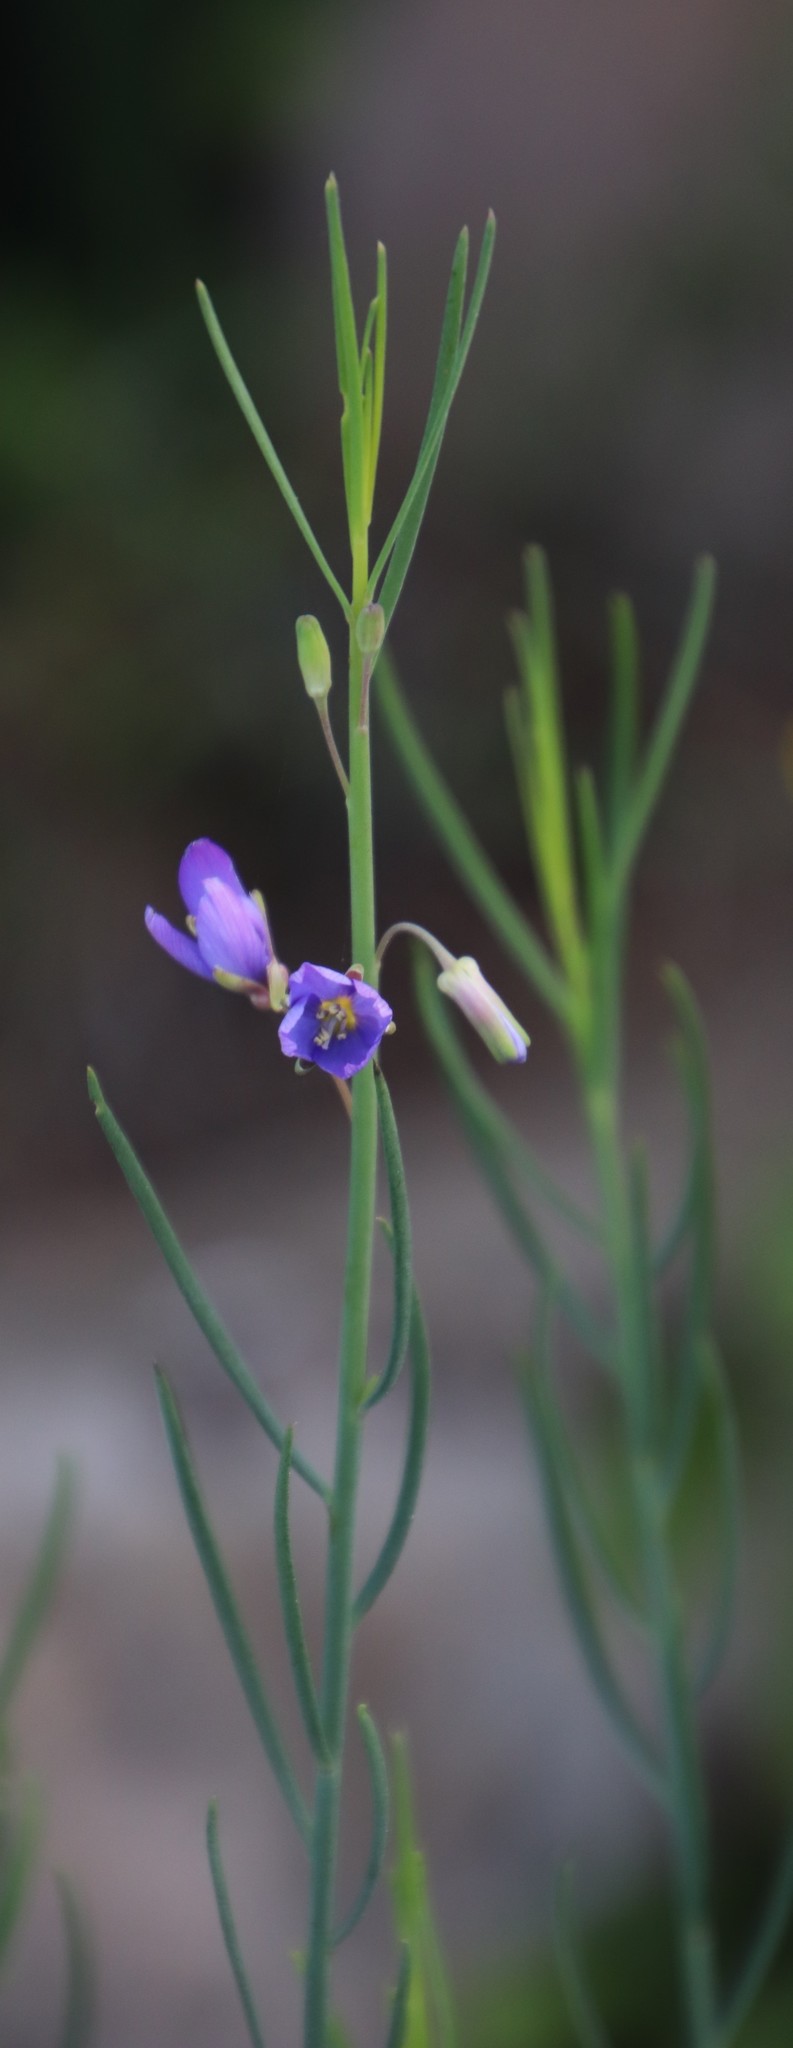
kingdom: Plantae
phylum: Tracheophyta
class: Magnoliopsida
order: Brassicales
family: Brassicaceae
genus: Heliophila
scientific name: Heliophila linearis
